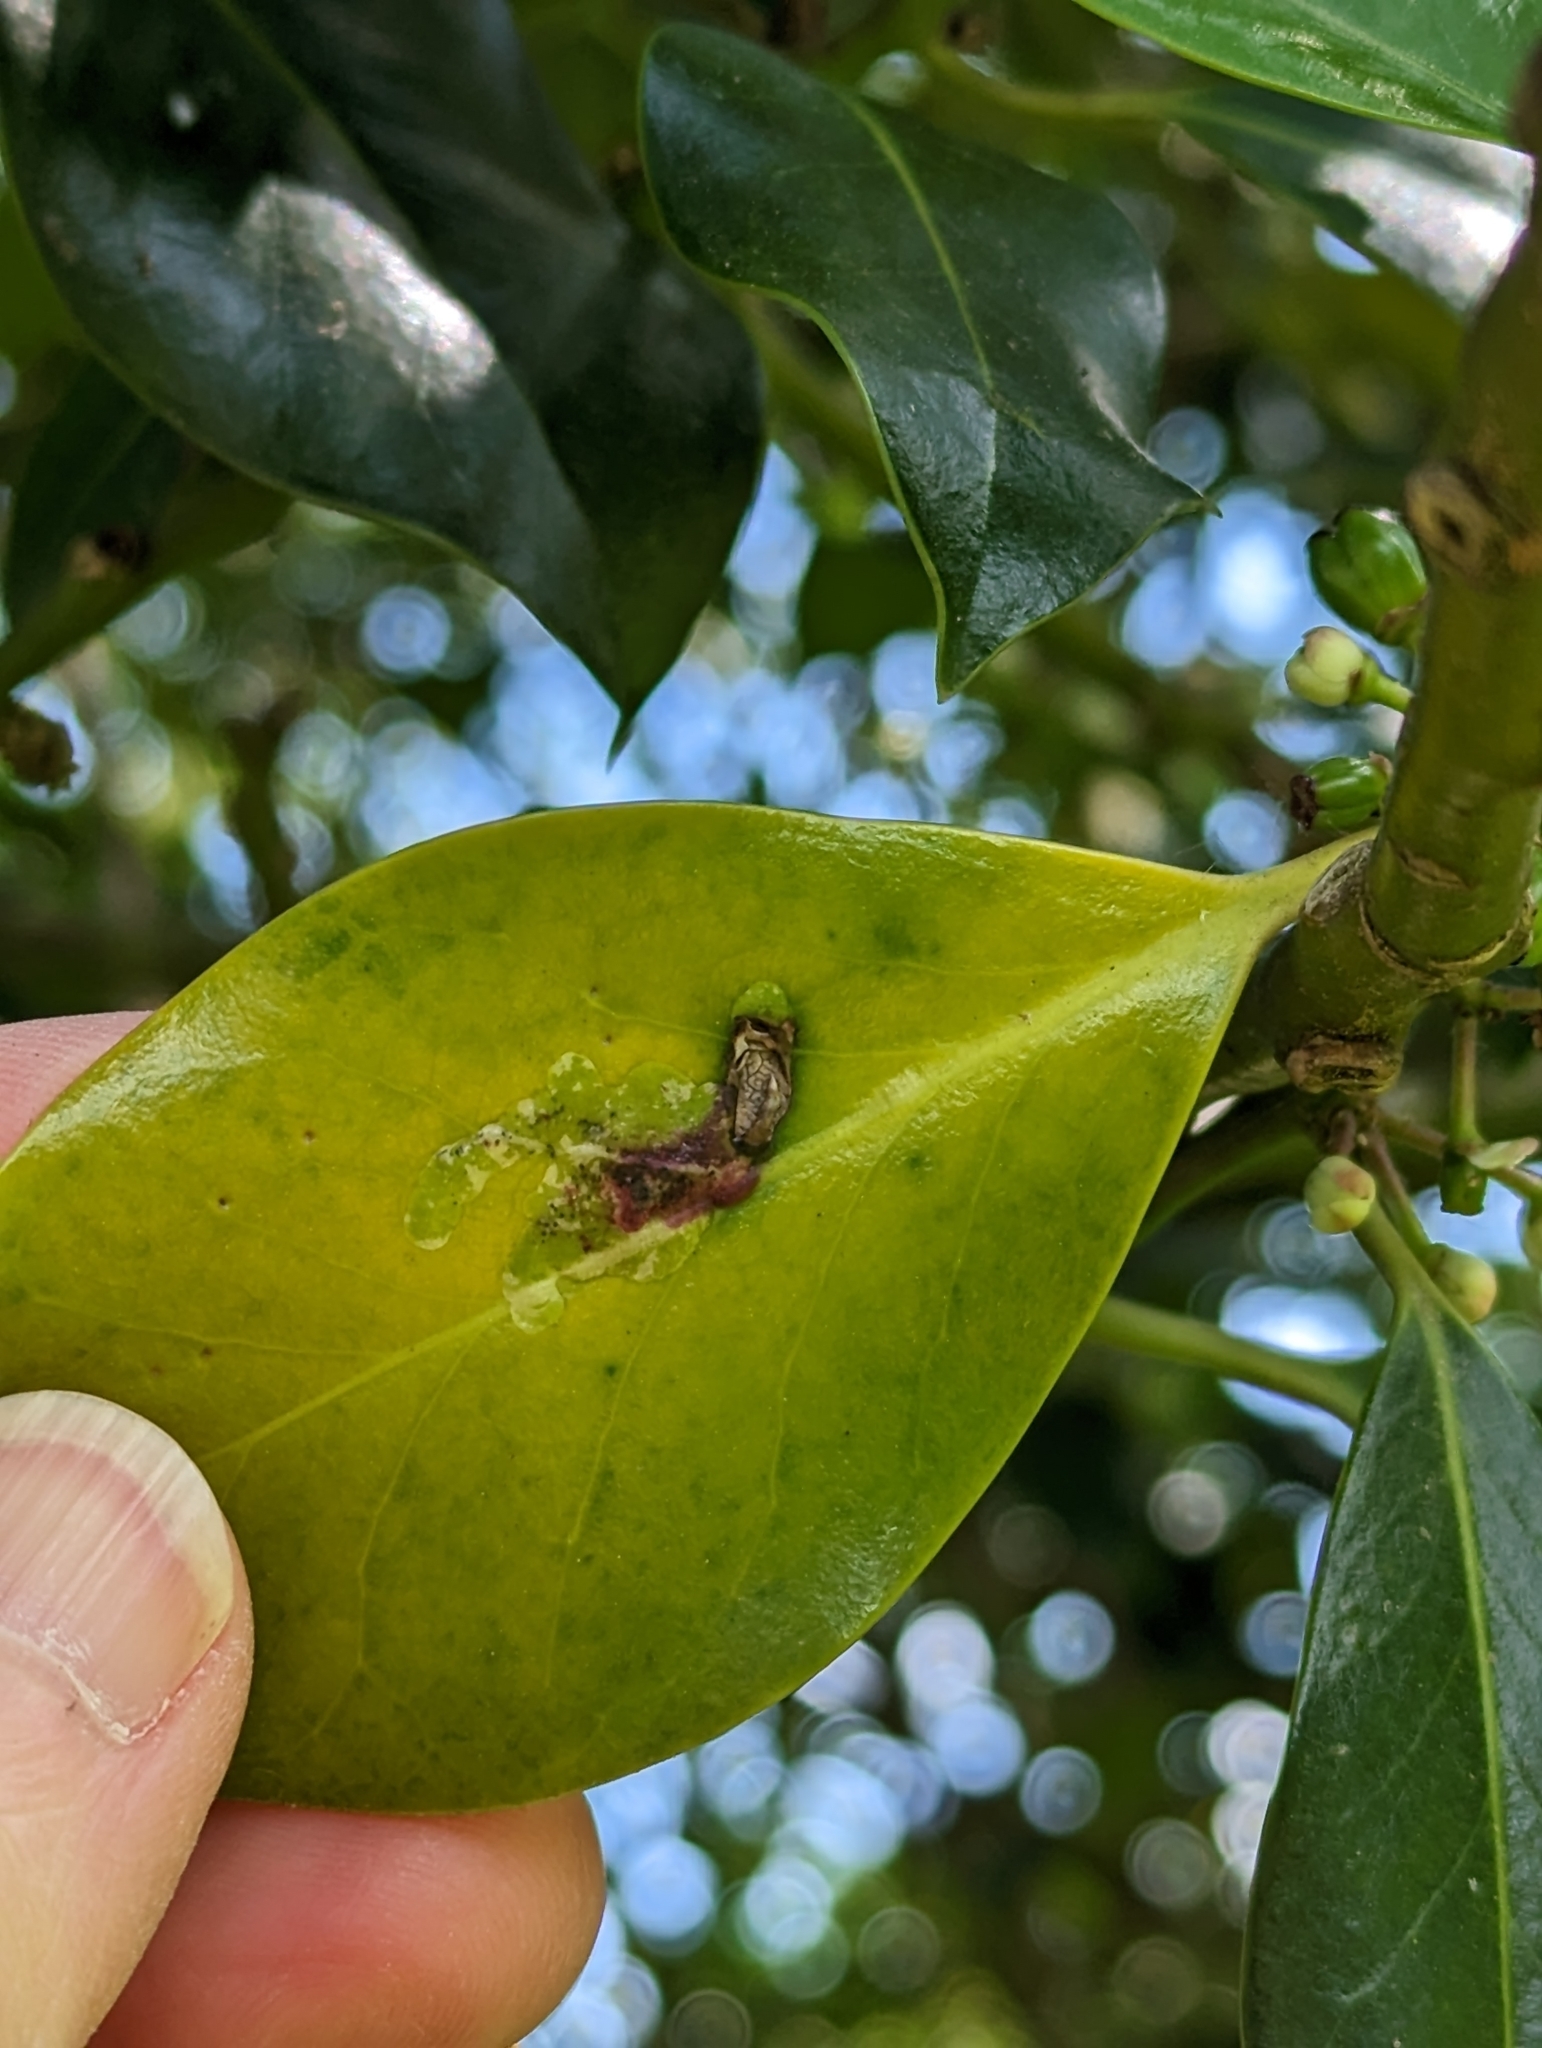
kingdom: Animalia
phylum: Arthropoda
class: Insecta
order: Diptera
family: Agromyzidae
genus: Phytomyza
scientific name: Phytomyza ilicis
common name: Holly leafminer
